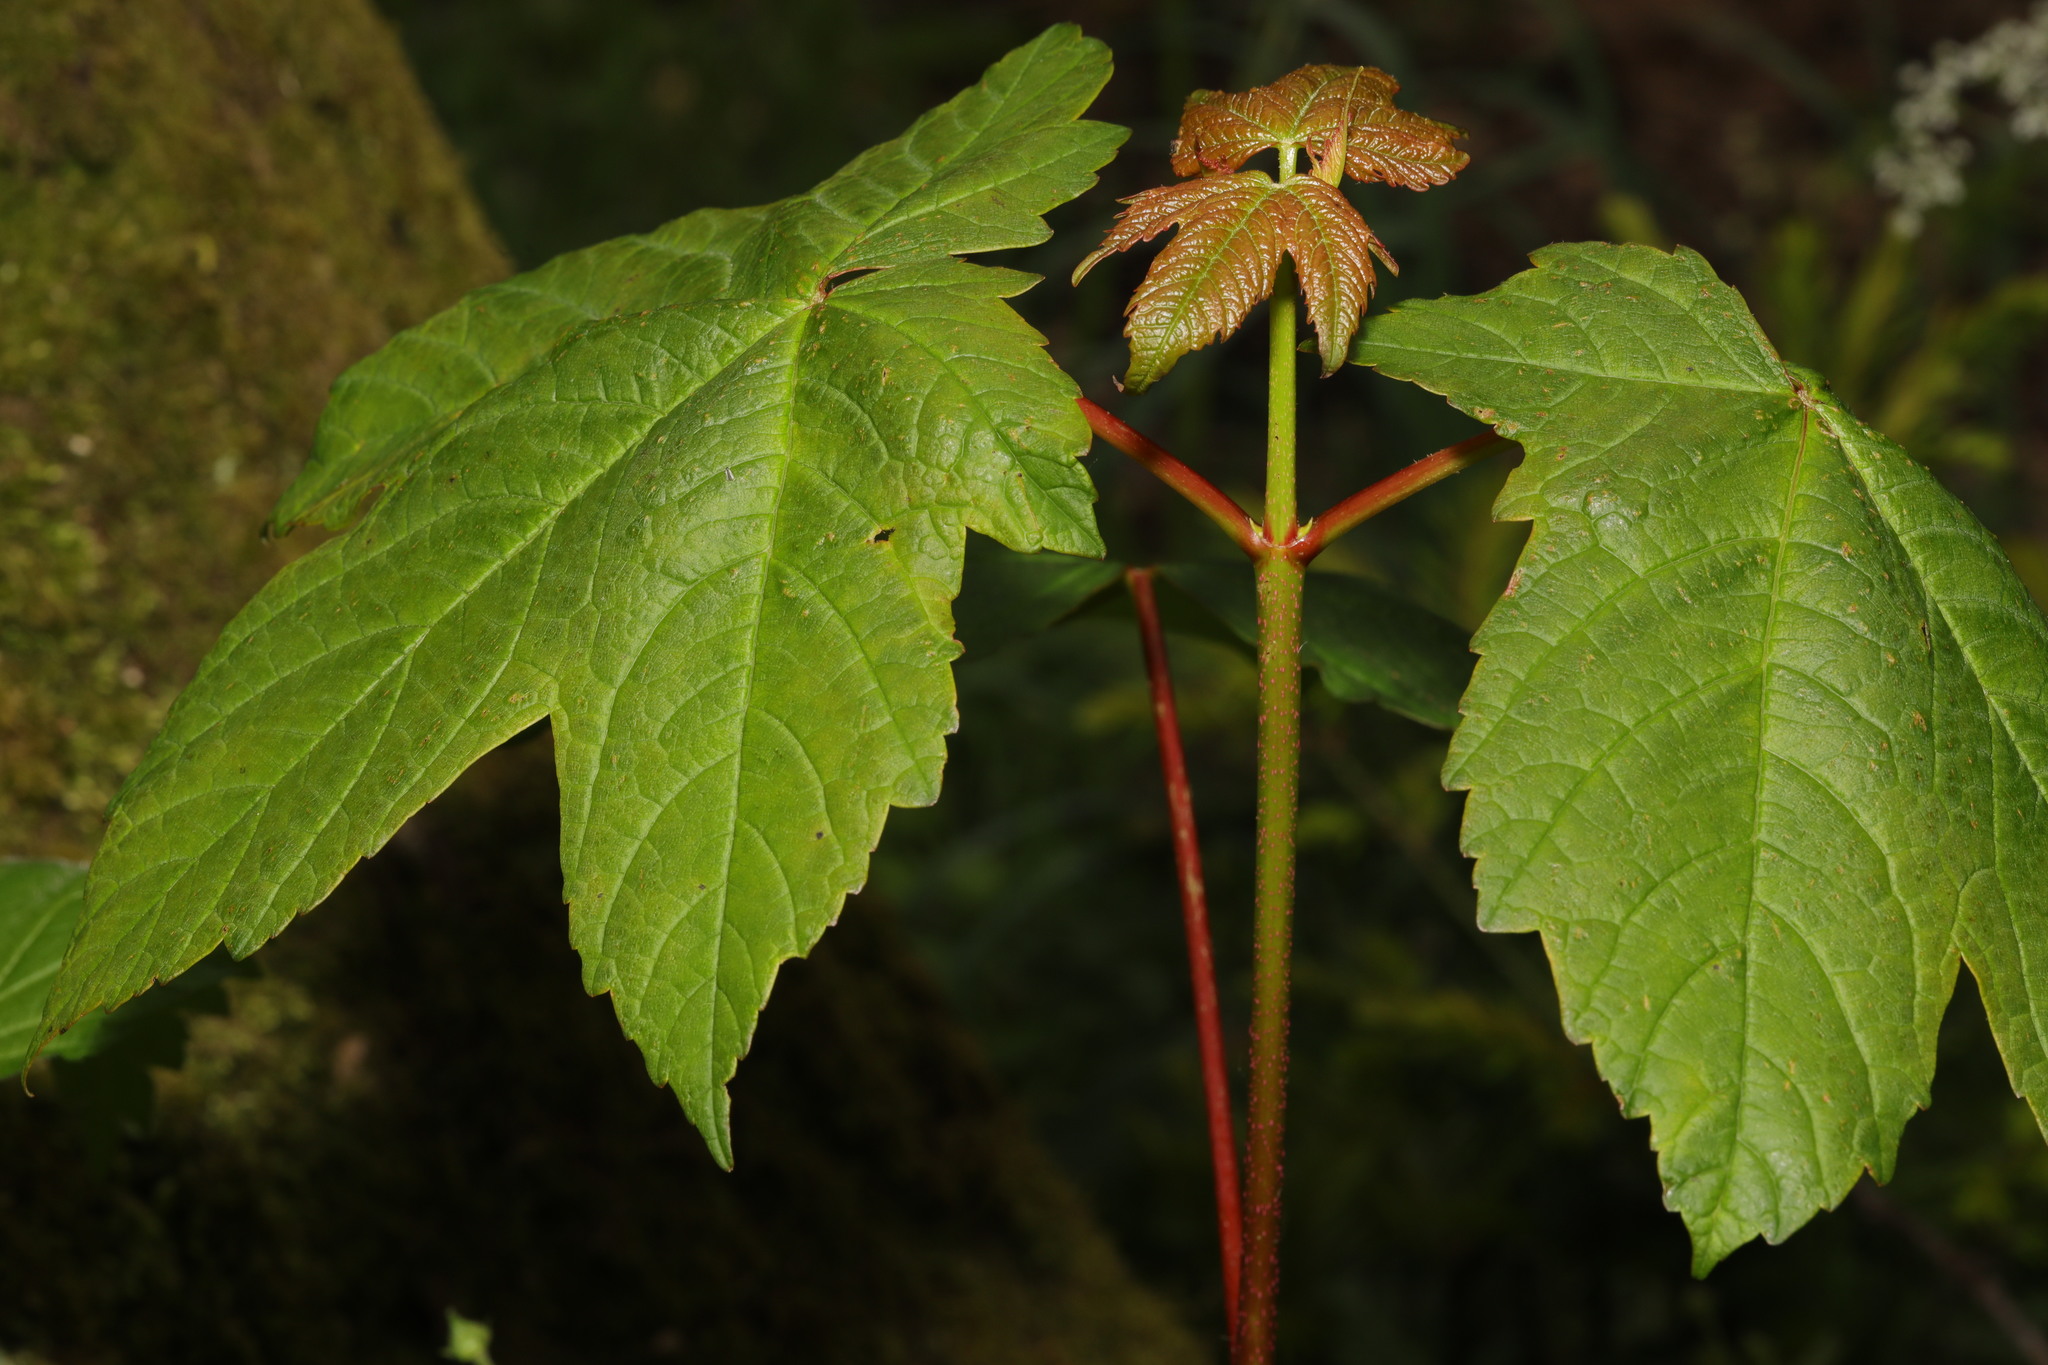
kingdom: Plantae
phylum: Tracheophyta
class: Magnoliopsida
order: Sapindales
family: Sapindaceae
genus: Acer
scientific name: Acer pseudoplatanus
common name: Sycamore
